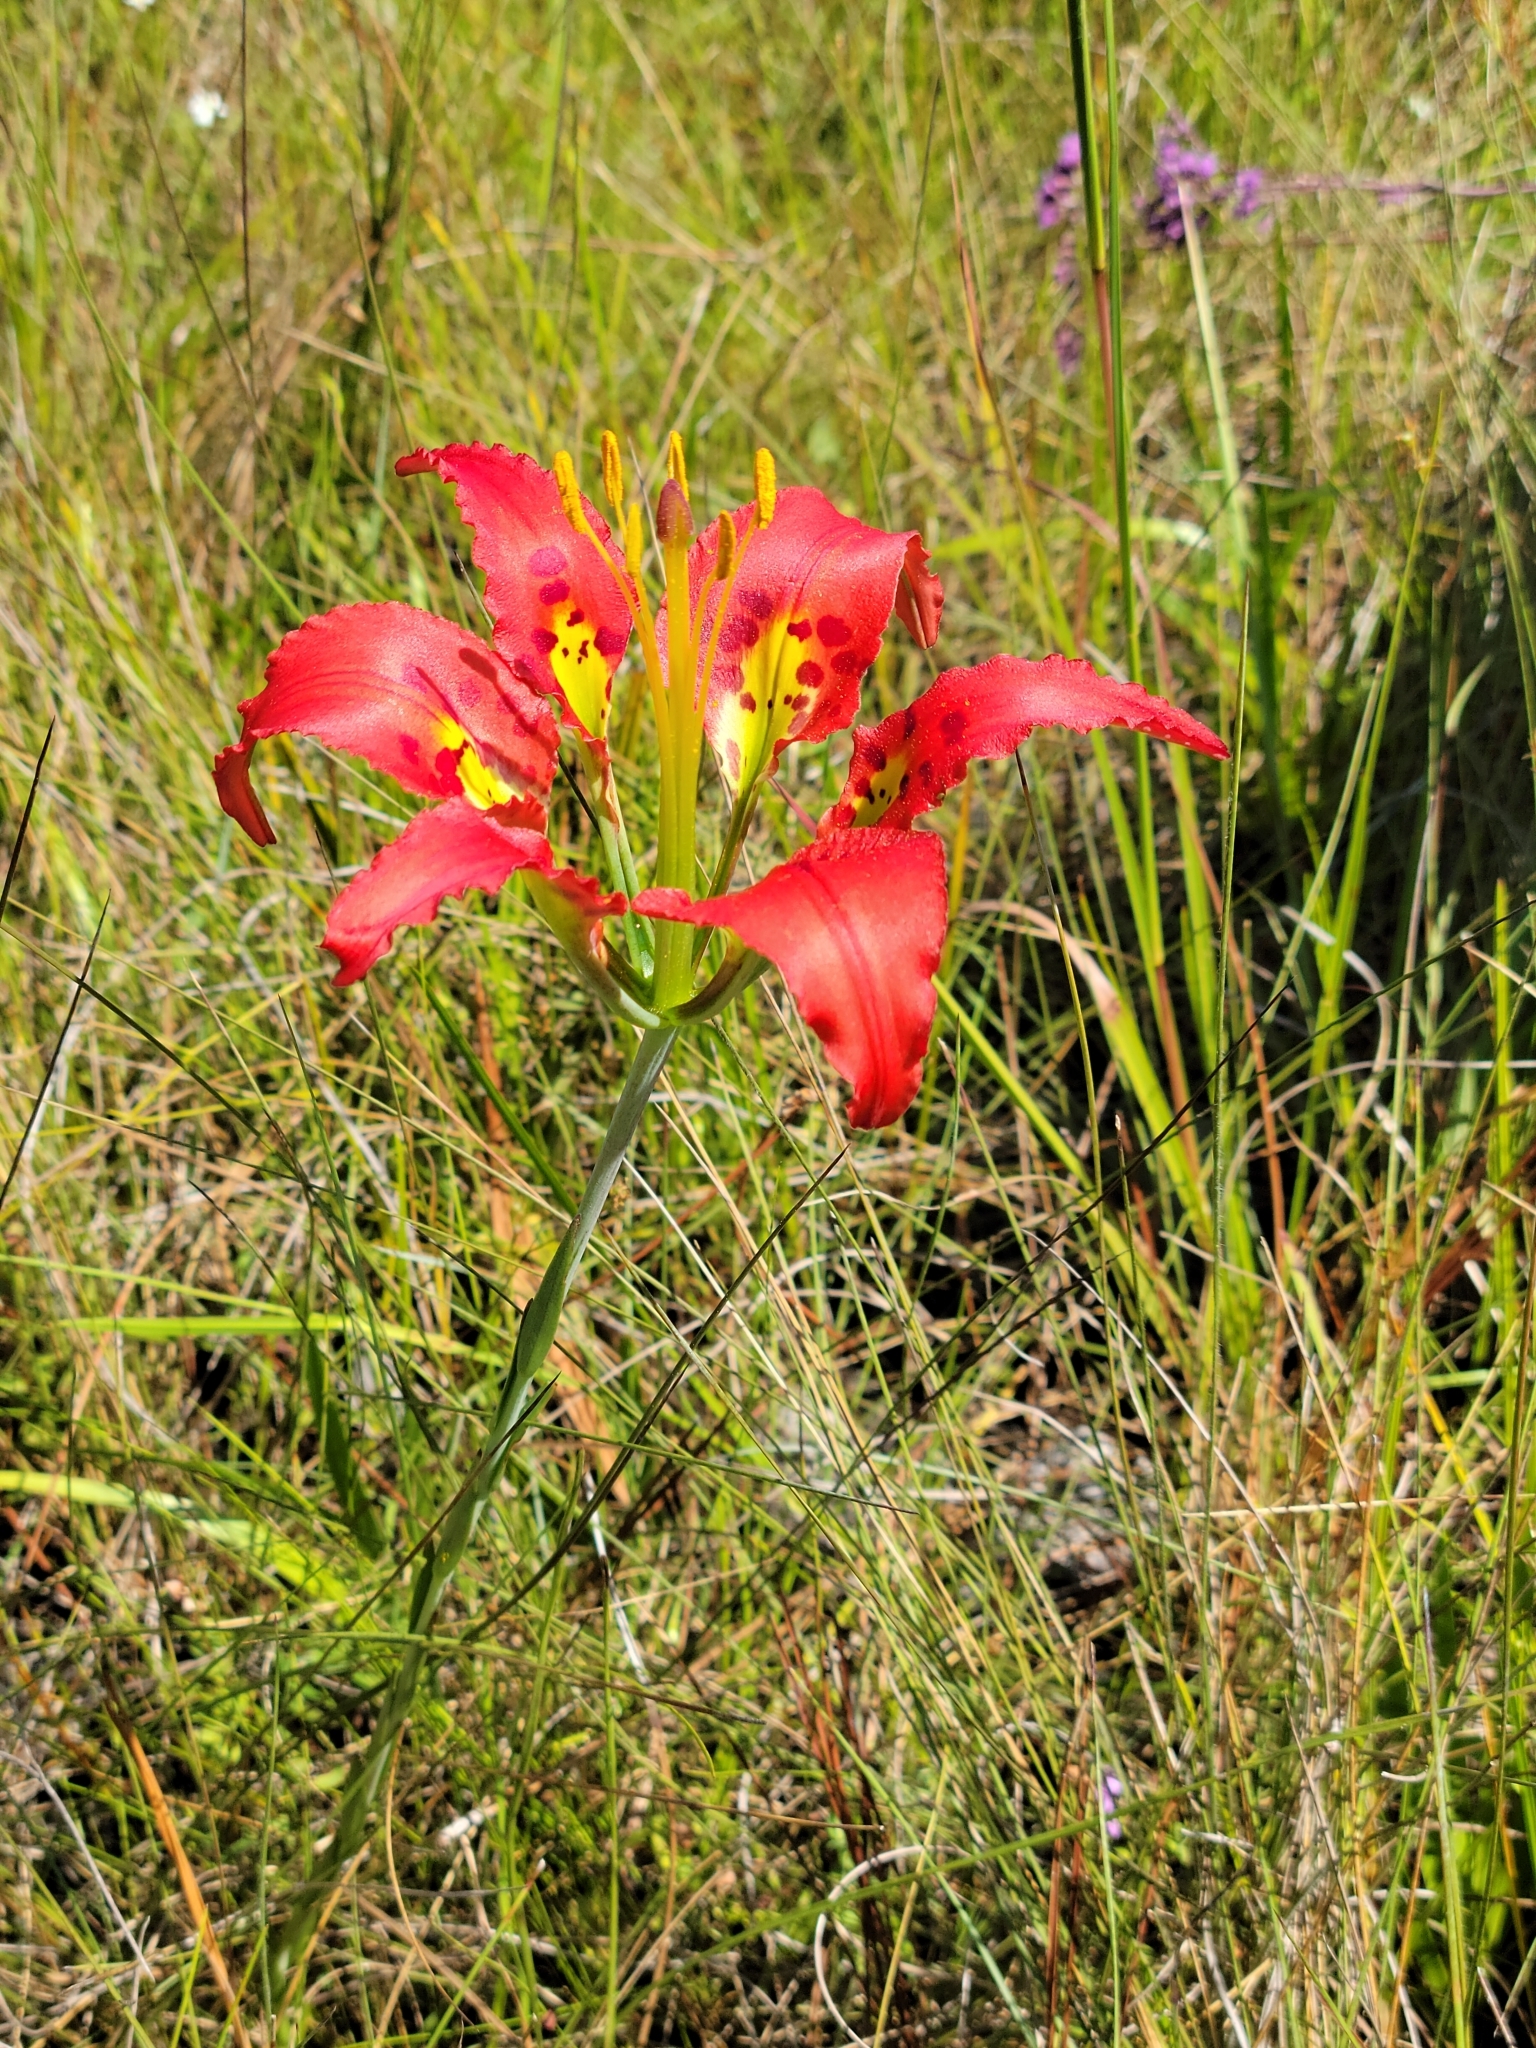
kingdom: Plantae
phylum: Tracheophyta
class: Liliopsida
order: Liliales
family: Liliaceae
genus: Lilium
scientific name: Lilium catesbaei
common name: Catesby's lily
